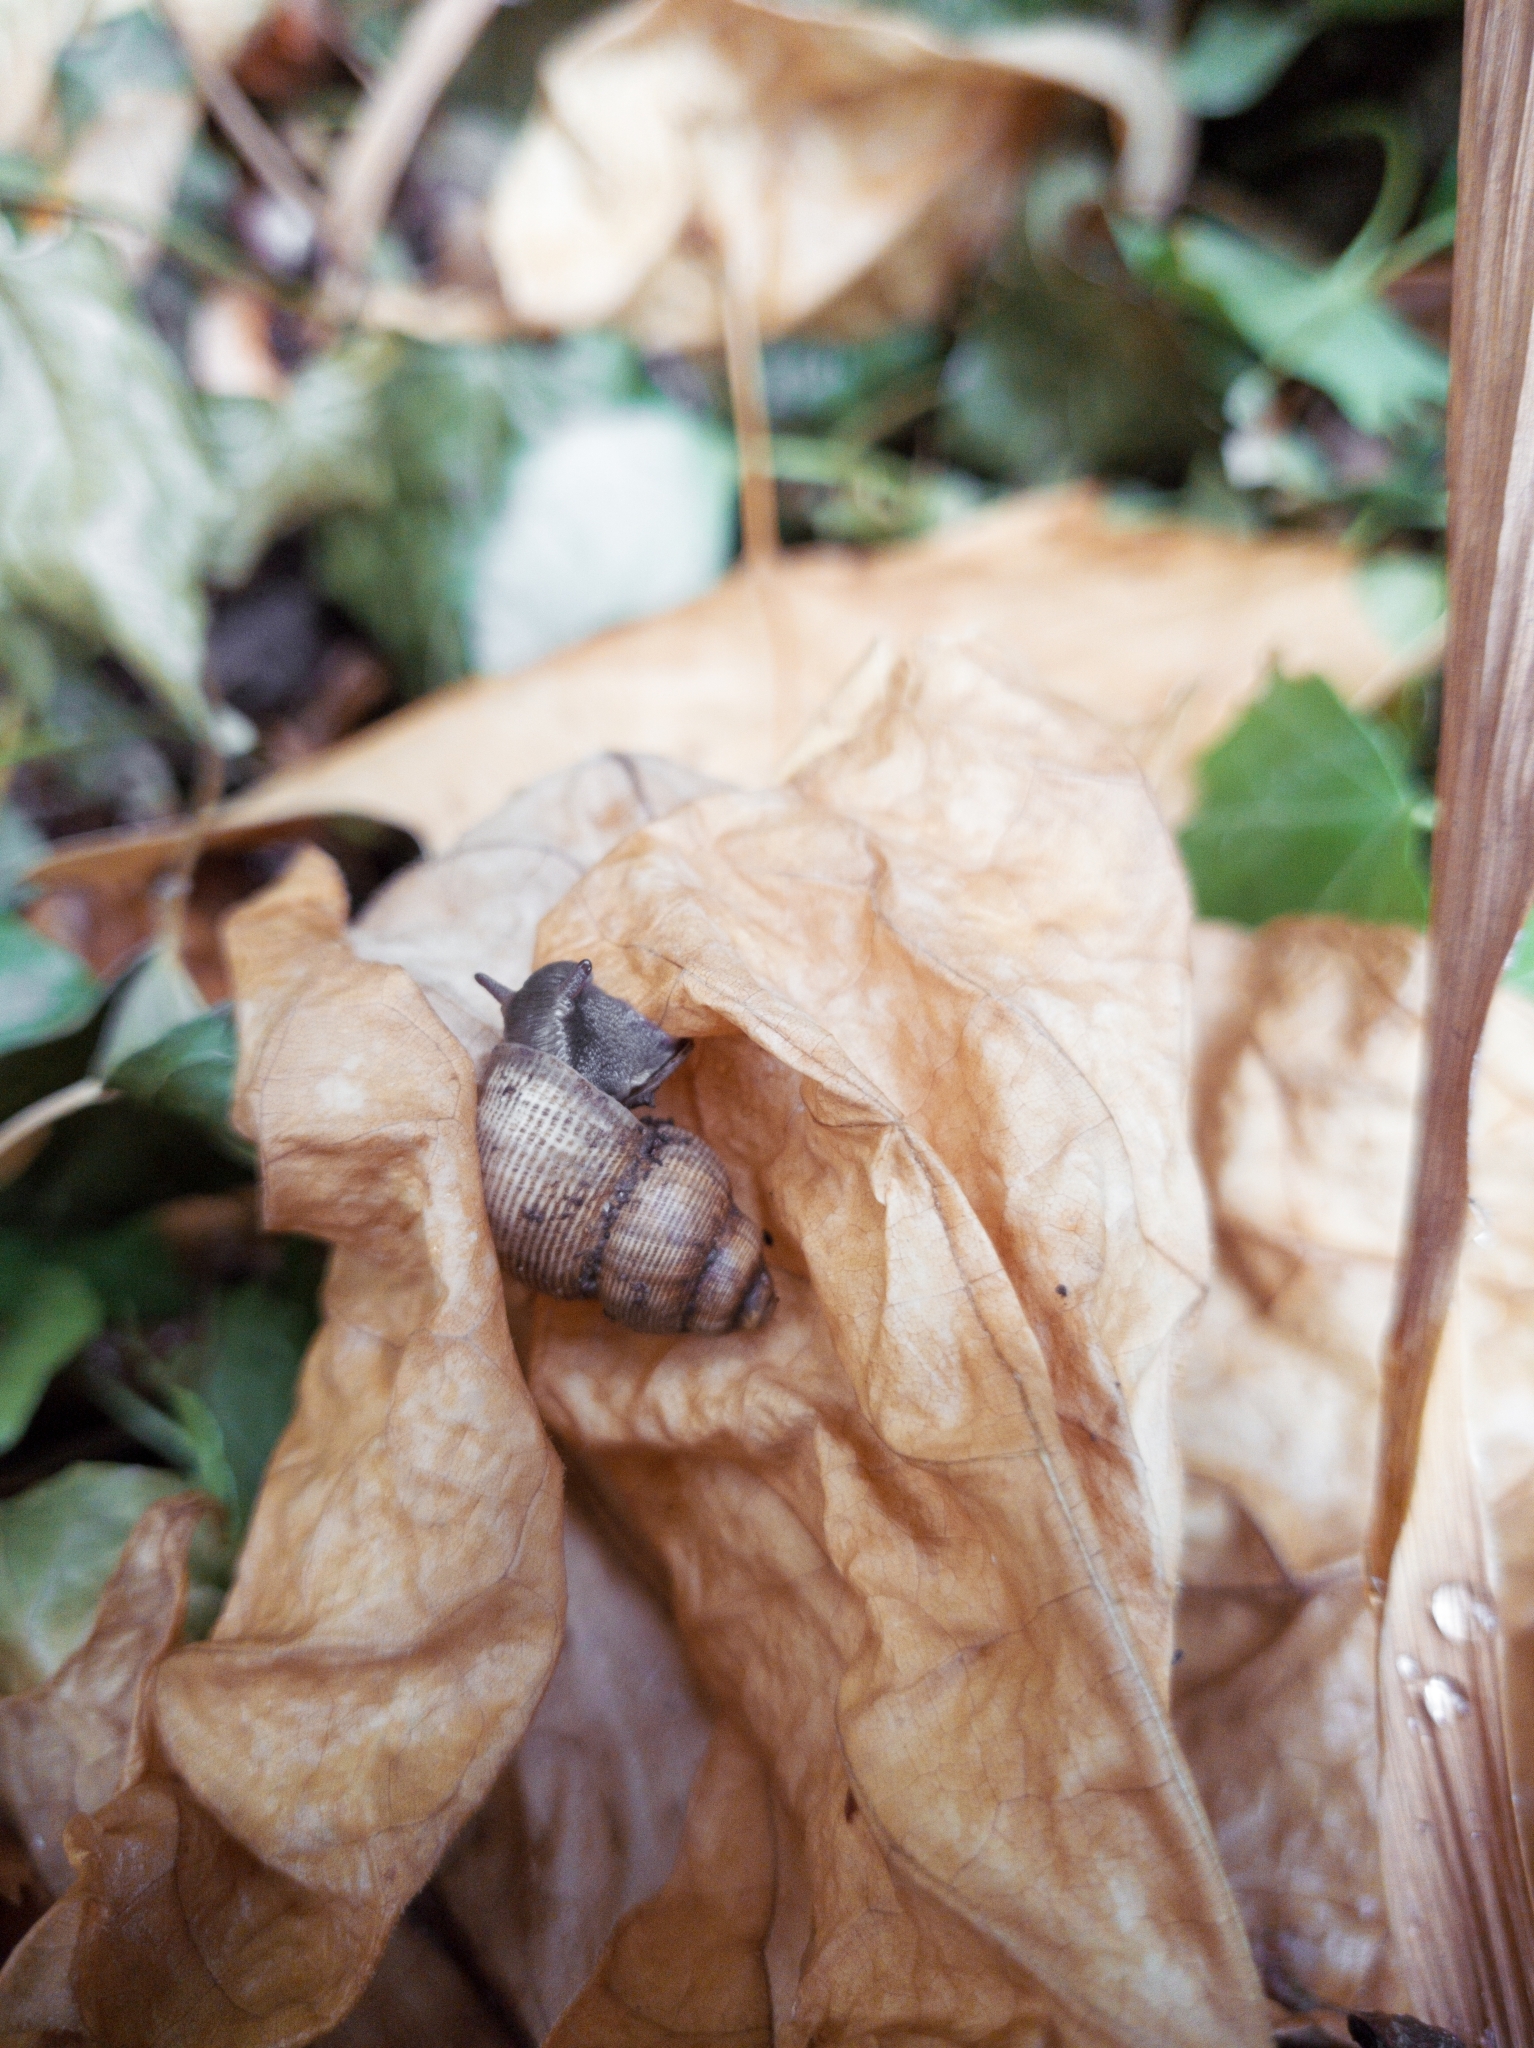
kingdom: Animalia
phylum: Mollusca
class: Gastropoda
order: Littorinimorpha
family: Pomatiidae
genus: Pomatias
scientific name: Pomatias elegans
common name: Red-mouthed snail
